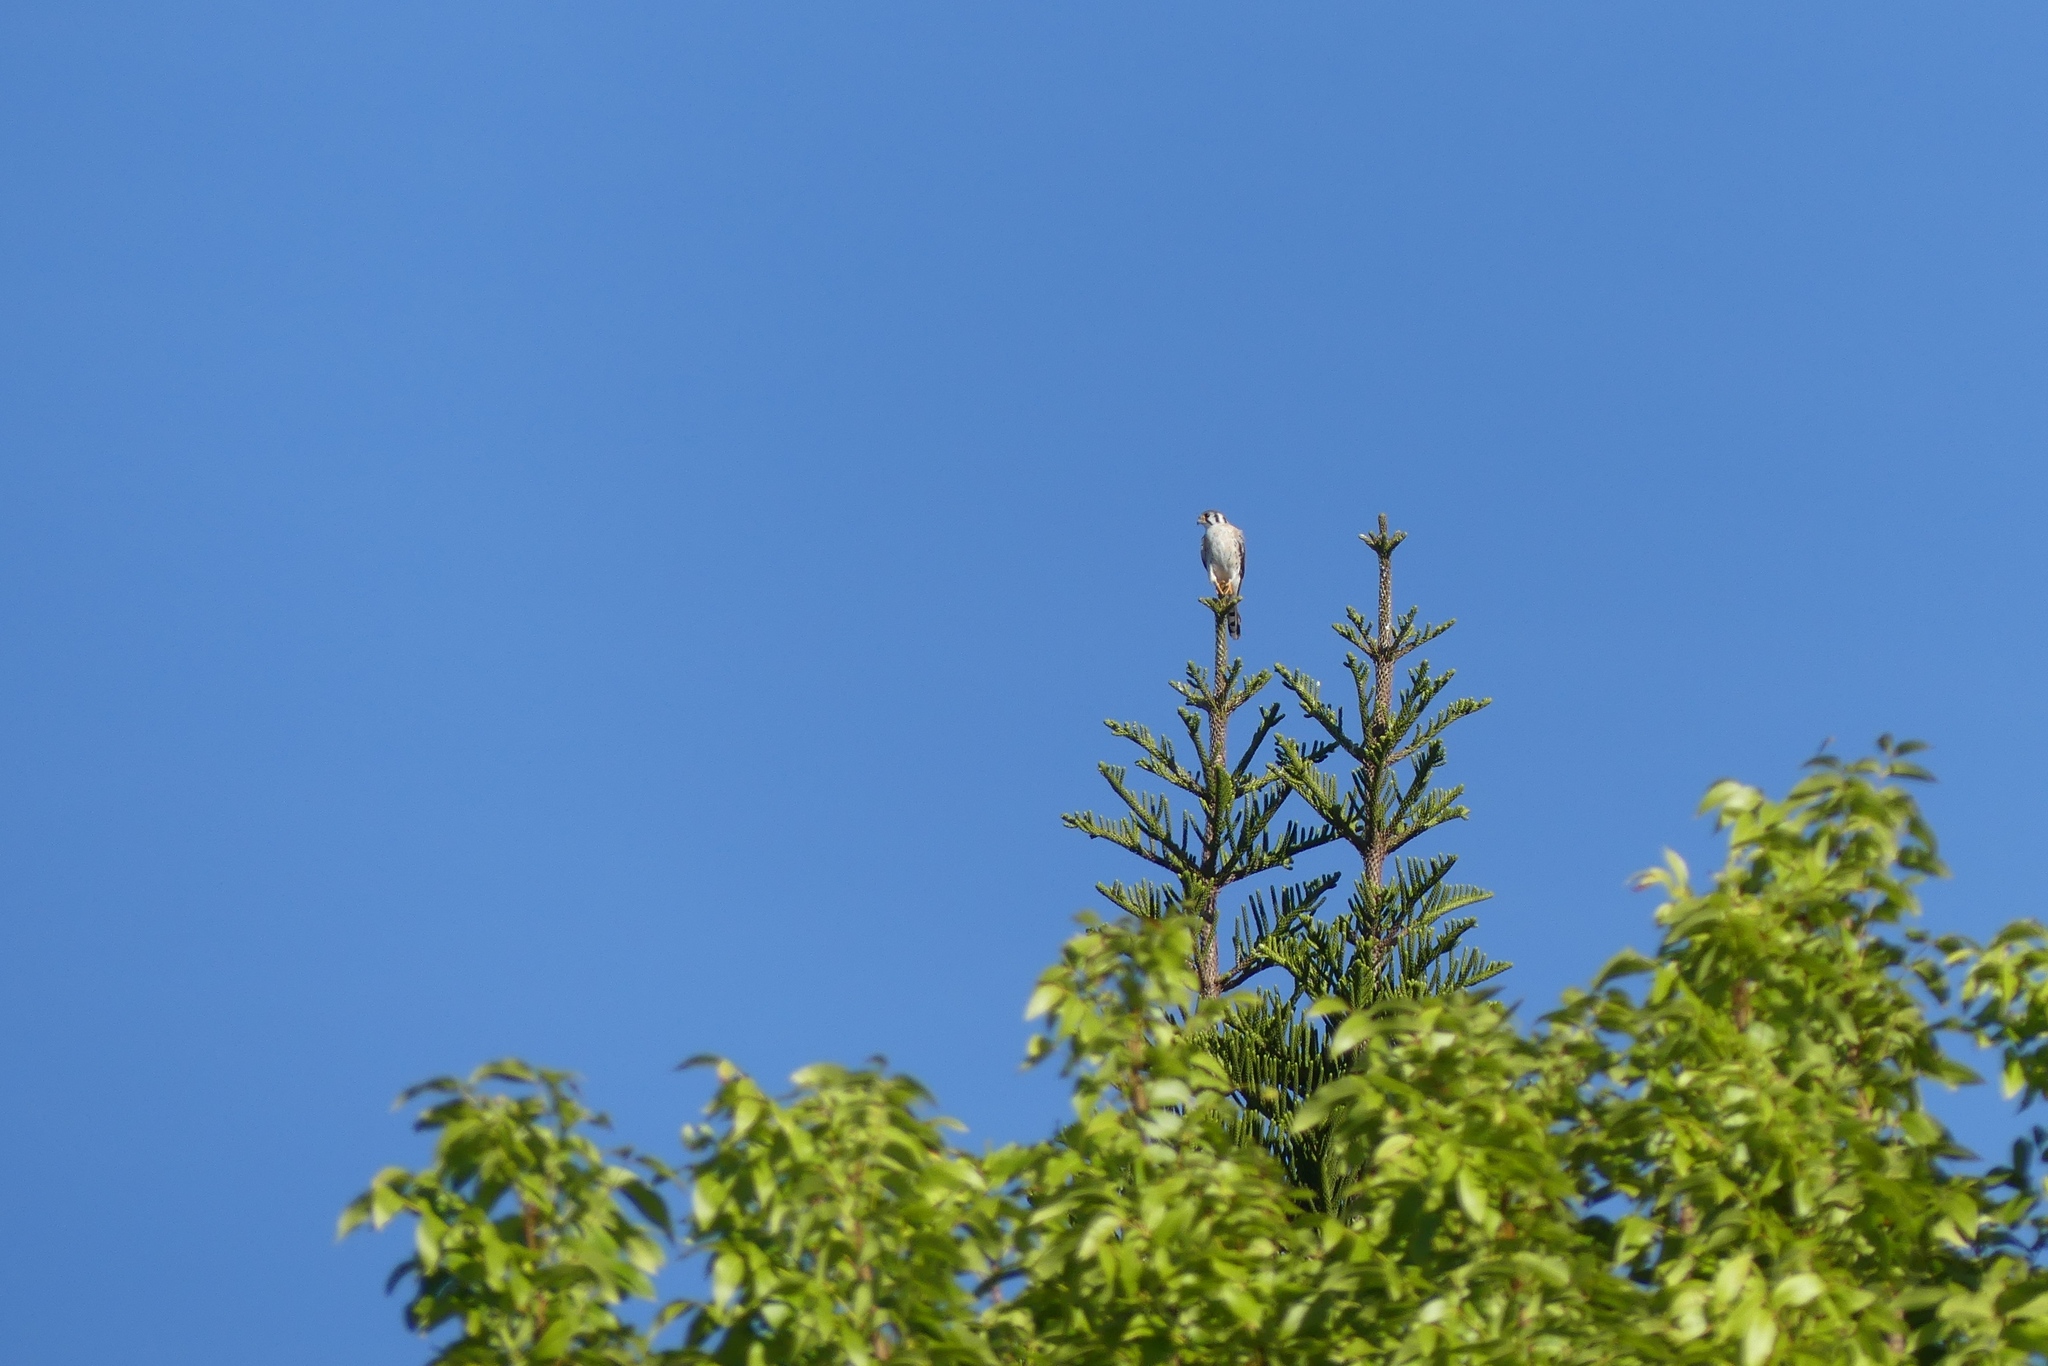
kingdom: Animalia
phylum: Chordata
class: Aves
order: Falconiformes
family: Falconidae
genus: Falco
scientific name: Falco sparverius
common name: American kestrel
